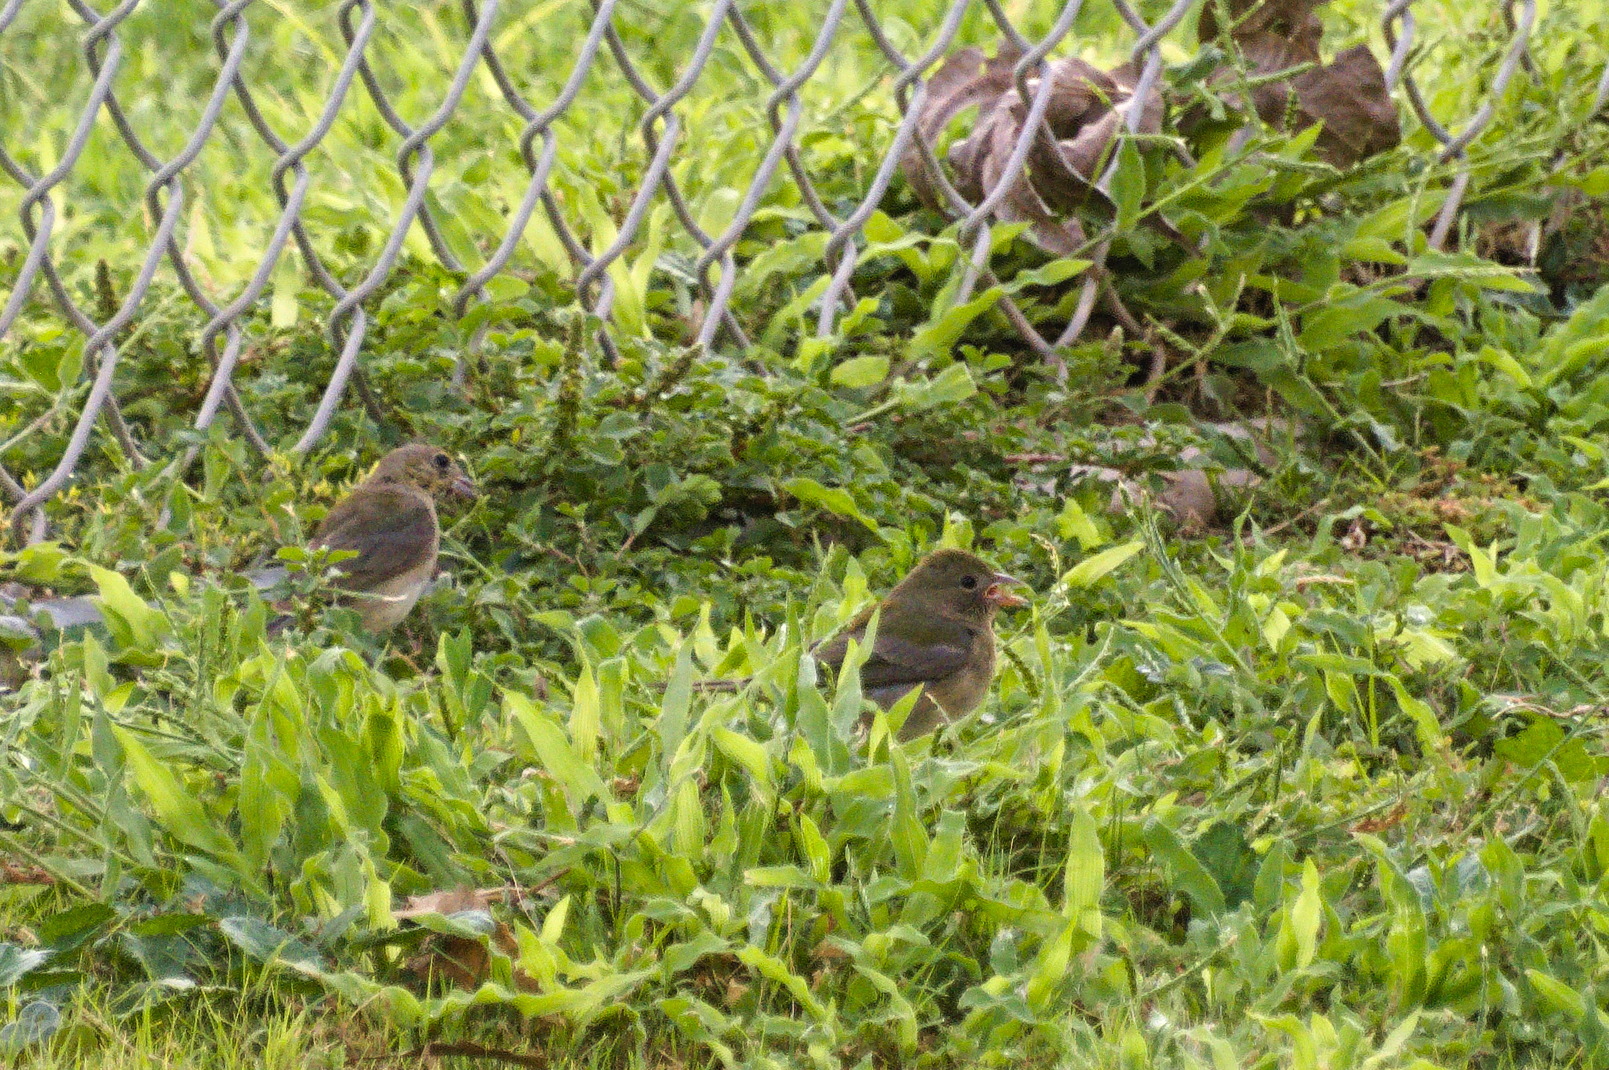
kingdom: Animalia
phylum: Chordata
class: Aves
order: Passeriformes
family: Cardinalidae
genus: Passerina
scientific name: Passerina ciris
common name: Painted bunting
